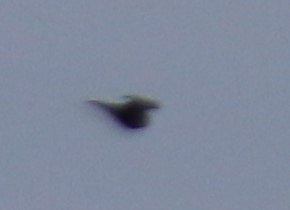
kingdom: Animalia
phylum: Chordata
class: Aves
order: Apodiformes
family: Apodidae
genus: Chaetura
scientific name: Chaetura pelagica
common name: Chimney swift
